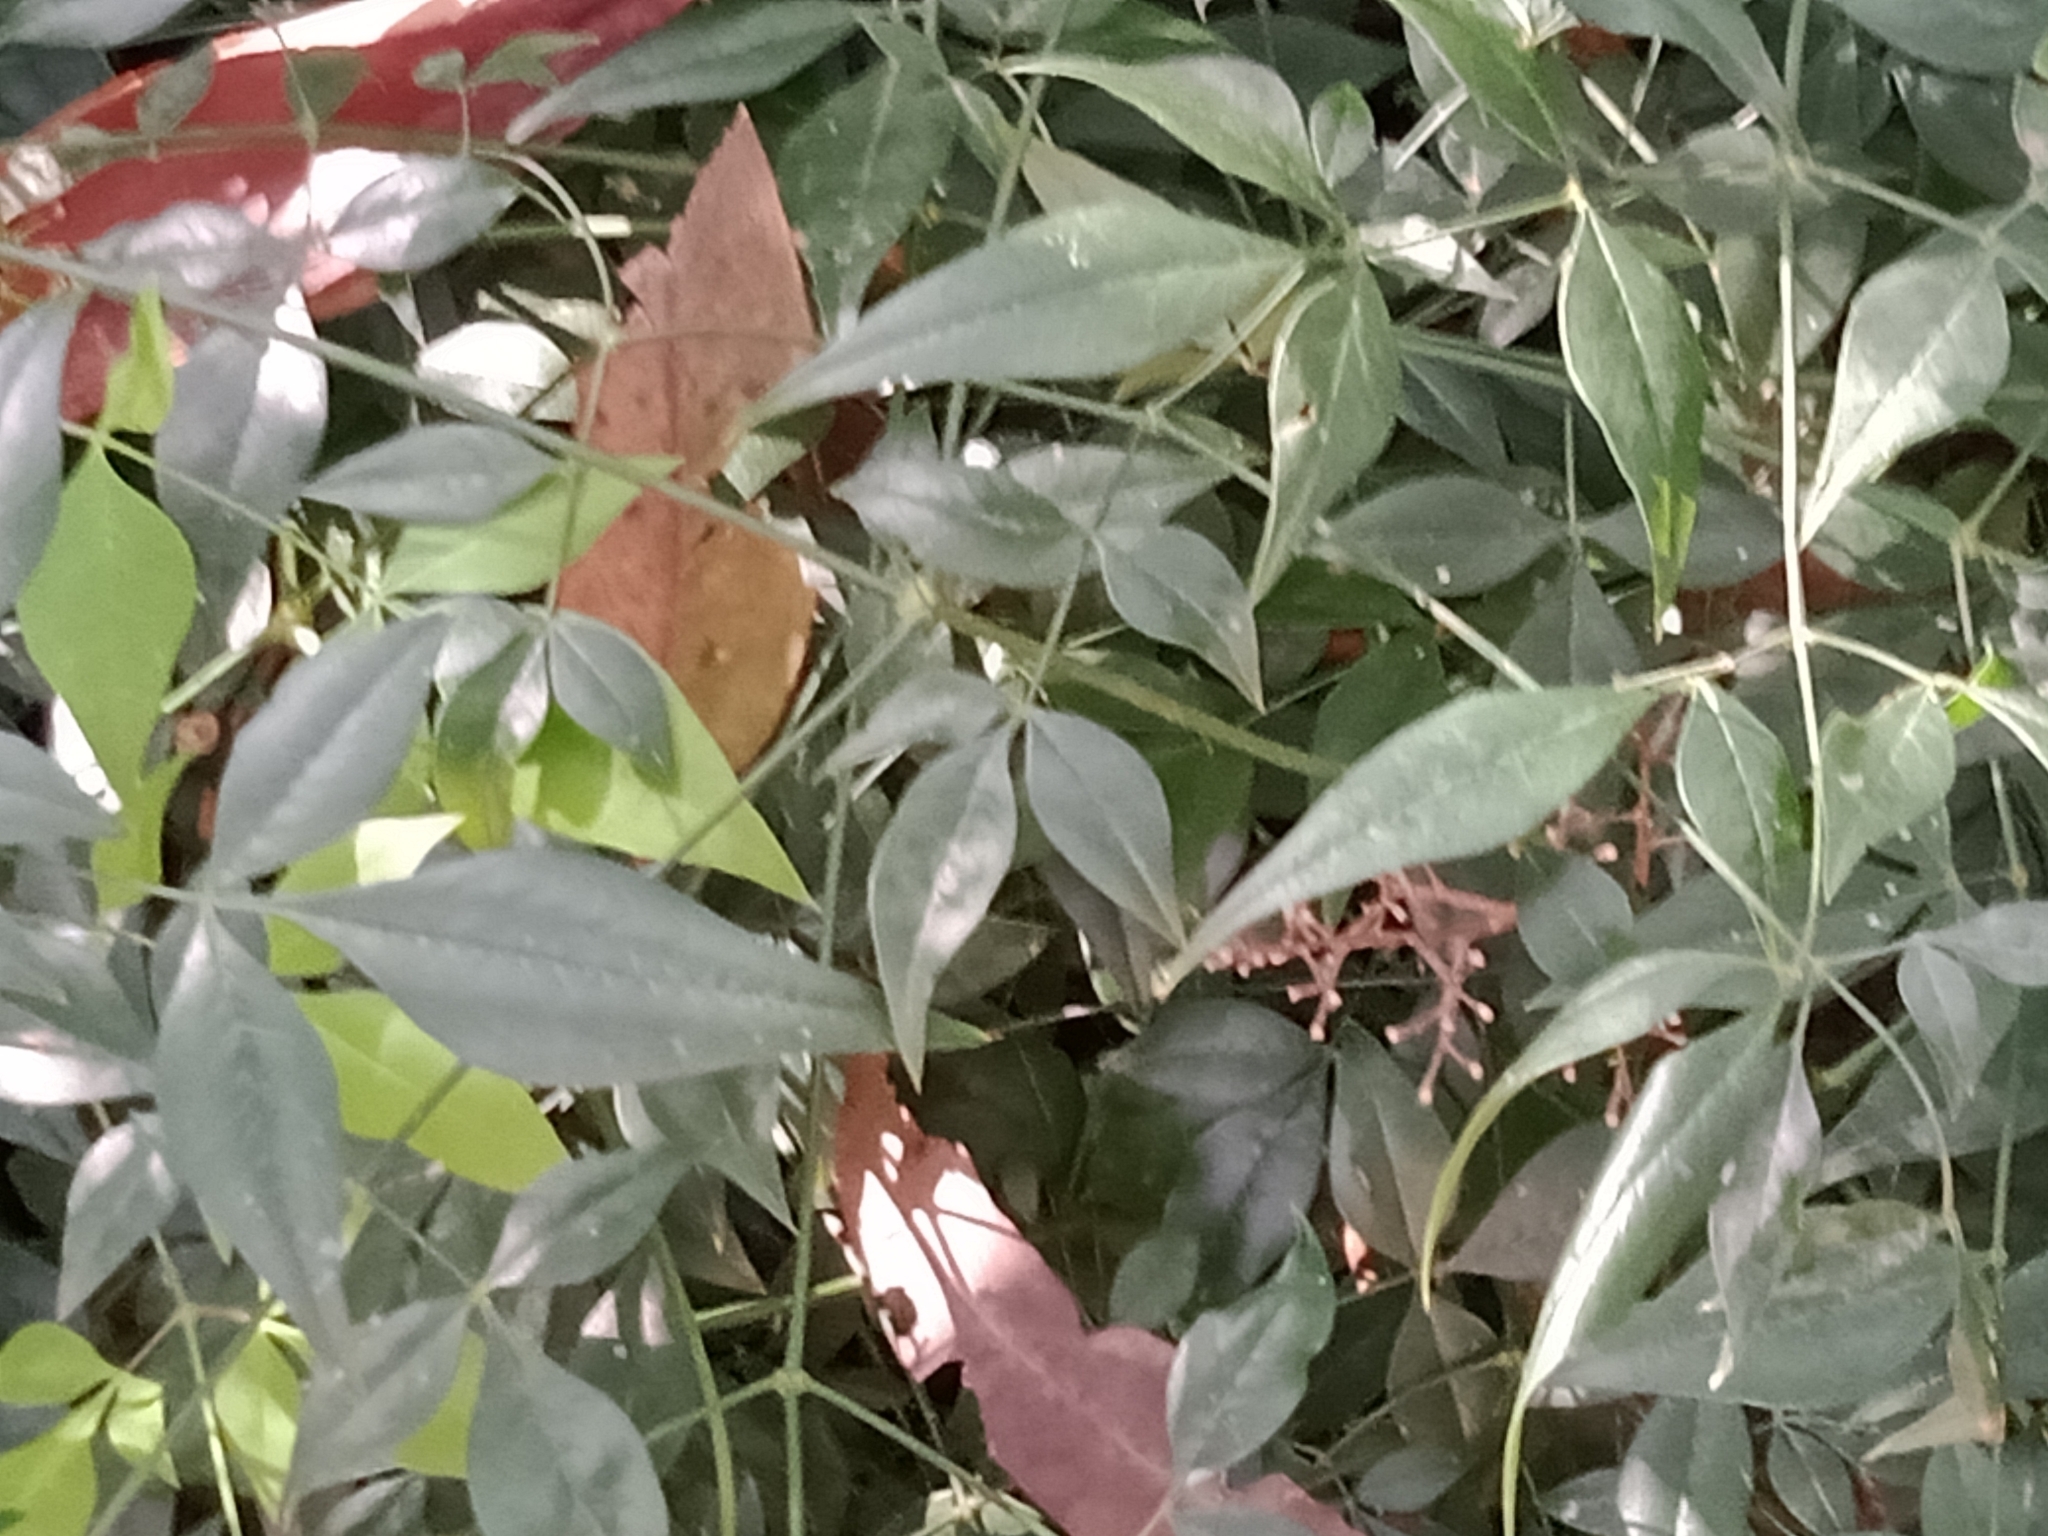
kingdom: Plantae
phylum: Tracheophyta
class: Magnoliopsida
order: Ranunculales
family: Berberidaceae
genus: Nandina
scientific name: Nandina domestica
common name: Sacred bamboo
